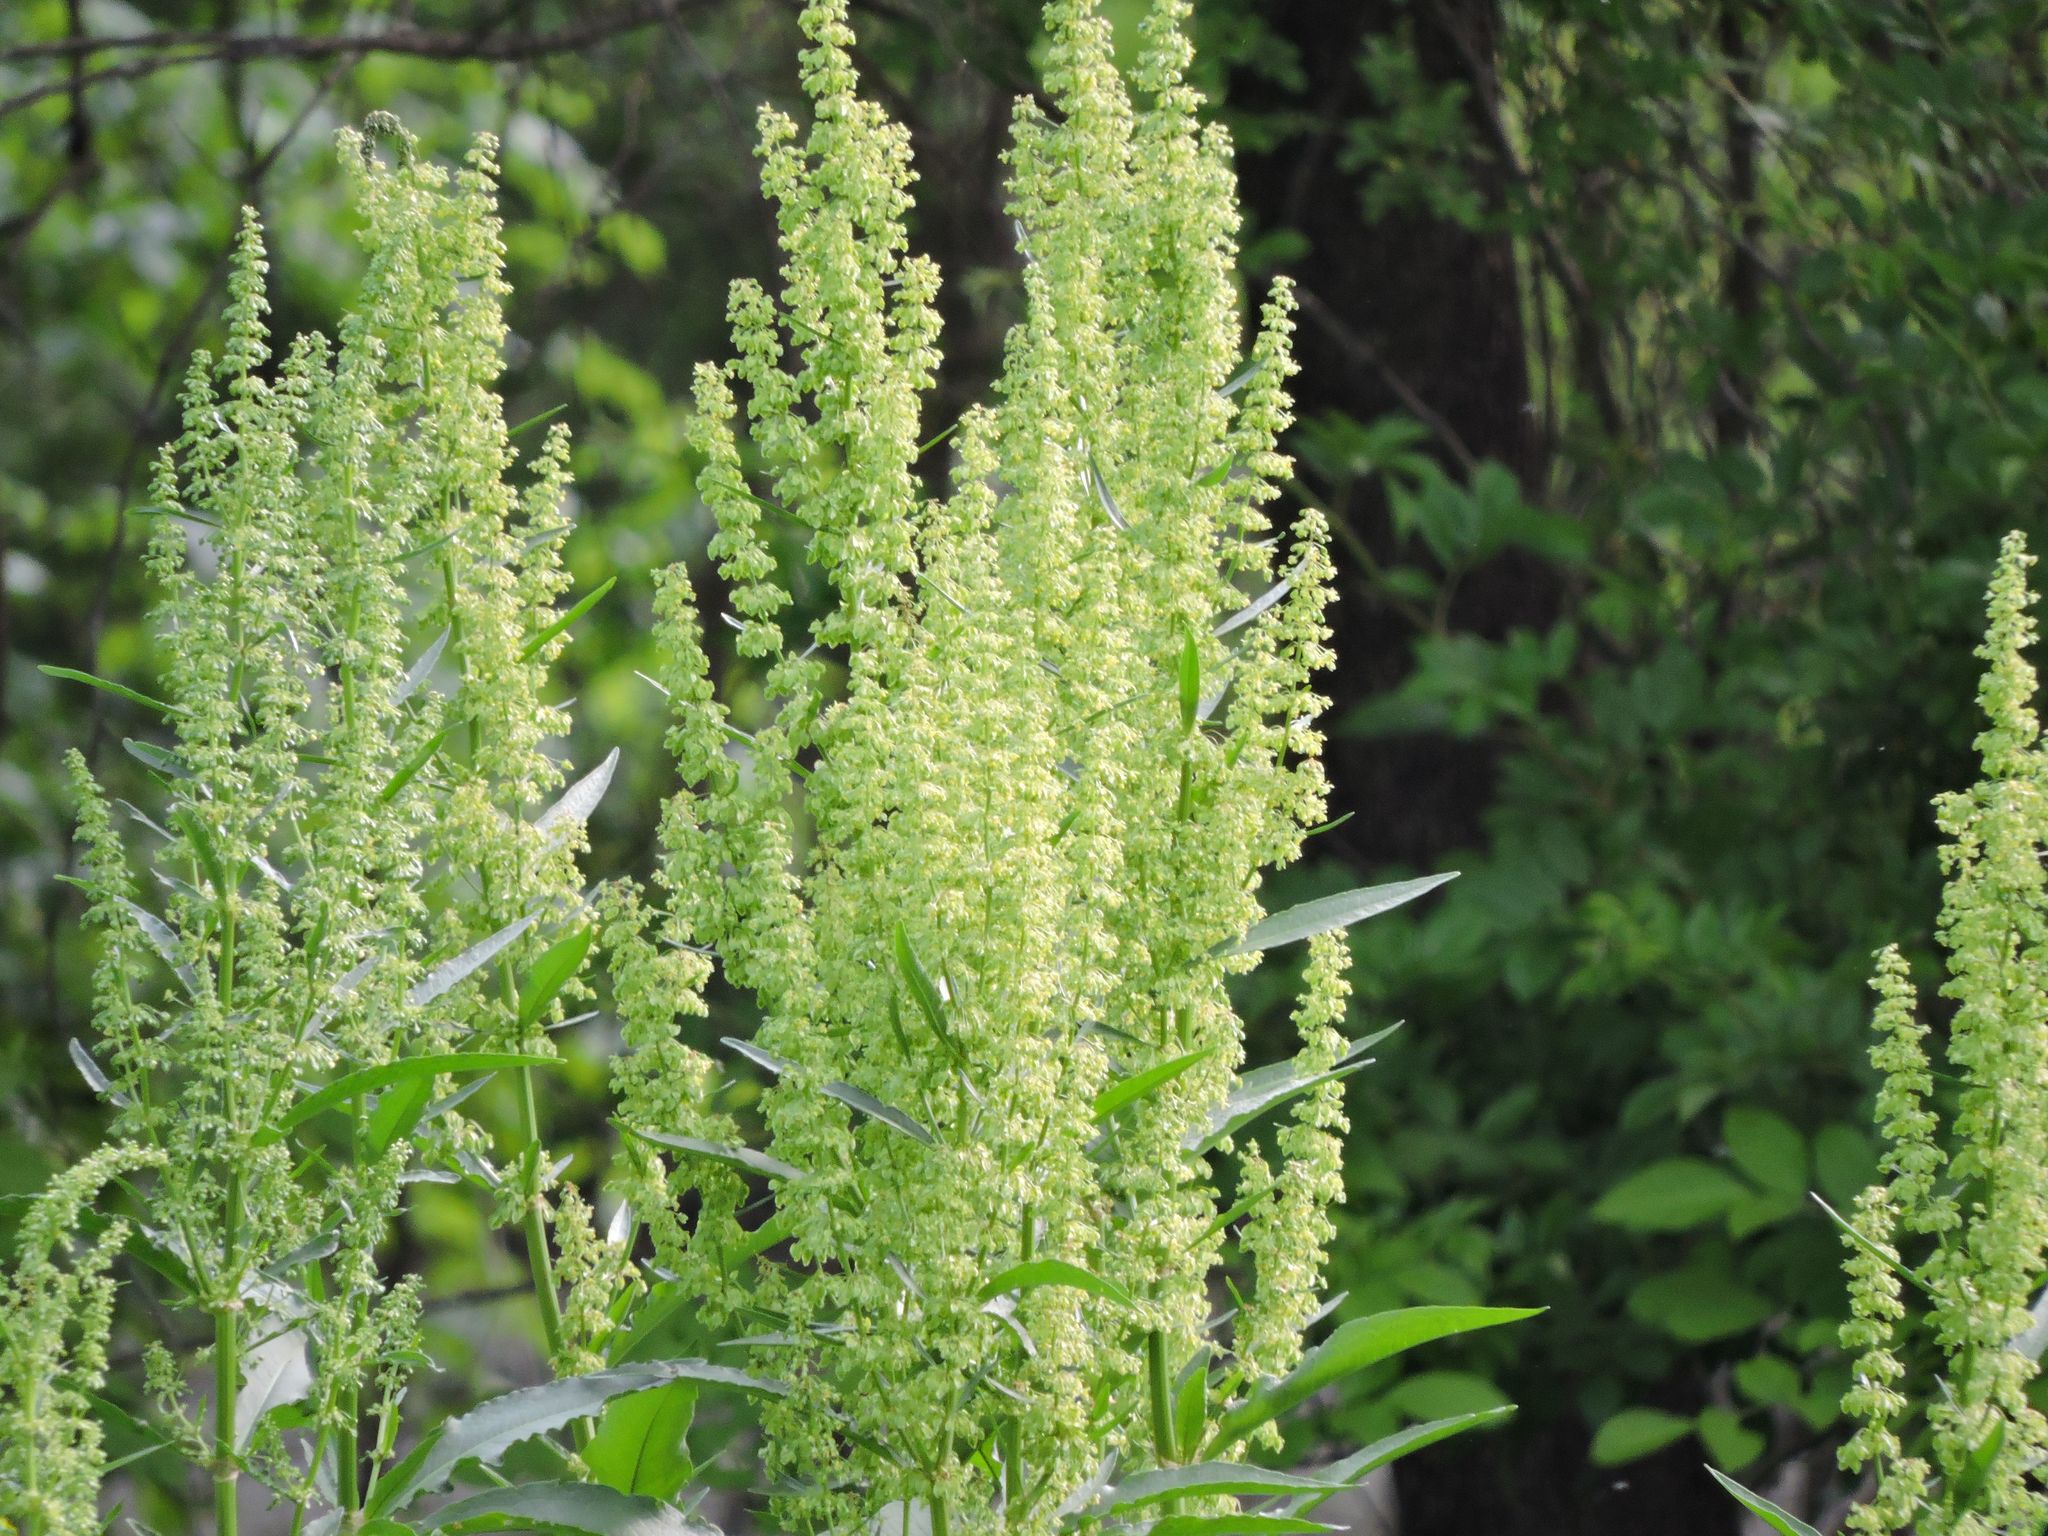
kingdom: Plantae
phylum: Tracheophyta
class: Magnoliopsida
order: Caryophyllales
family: Polygonaceae
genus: Rumex
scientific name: Rumex crispus
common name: Curled dock
